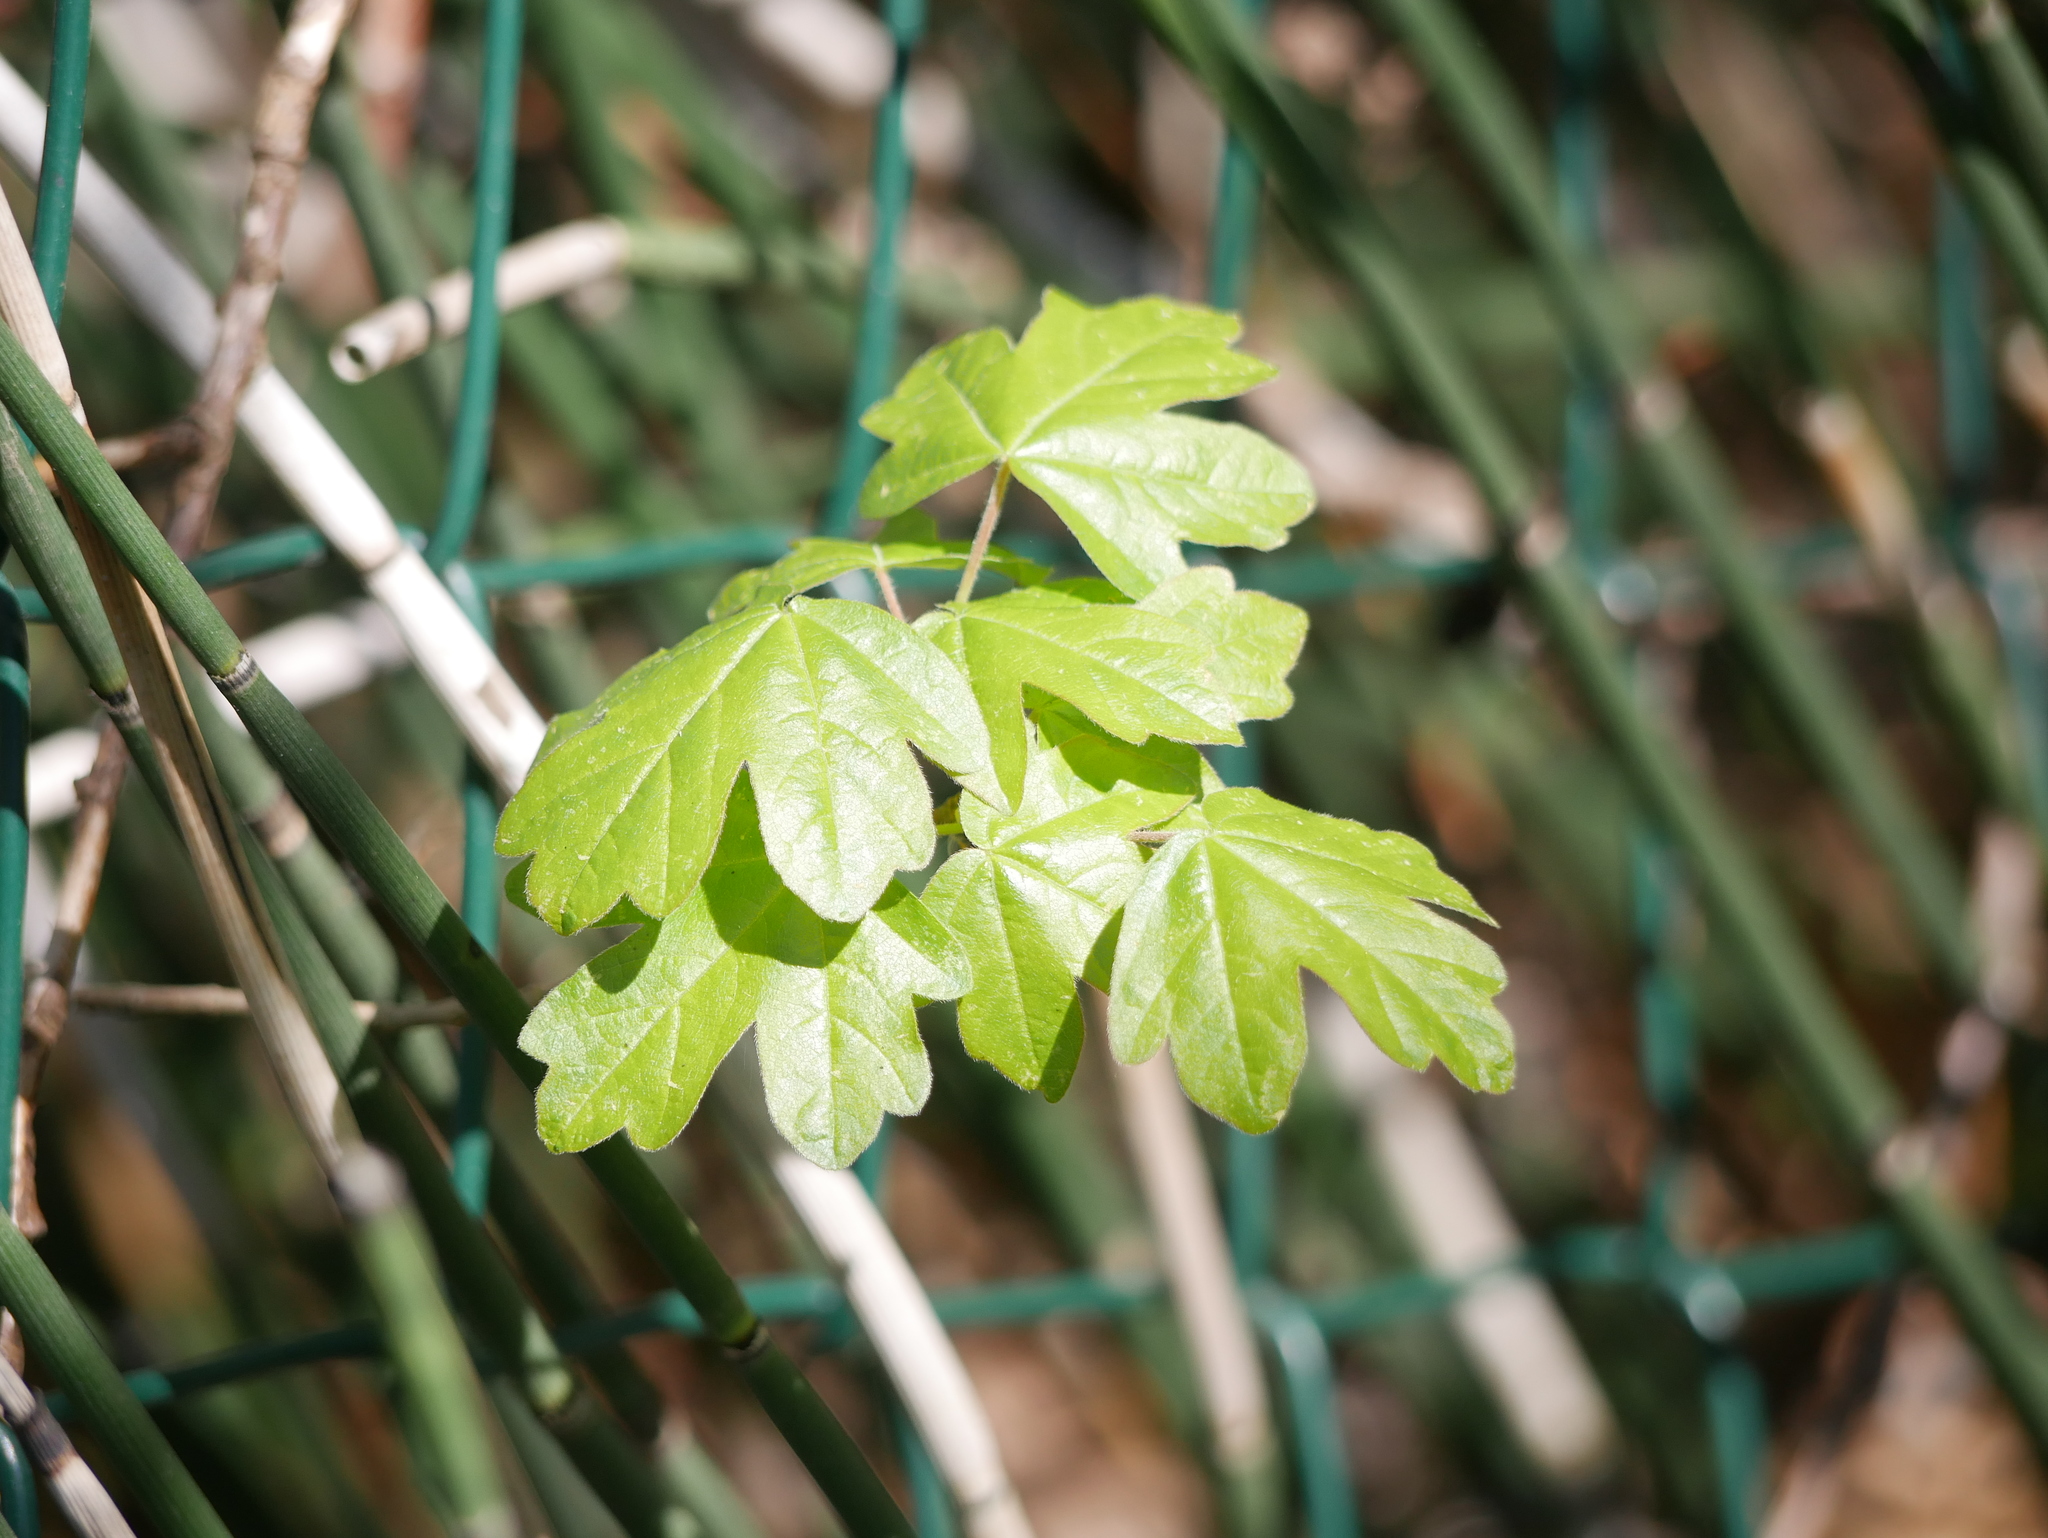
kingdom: Plantae
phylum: Tracheophyta
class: Magnoliopsida
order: Sapindales
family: Sapindaceae
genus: Acer
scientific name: Acer campestre
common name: Field maple
